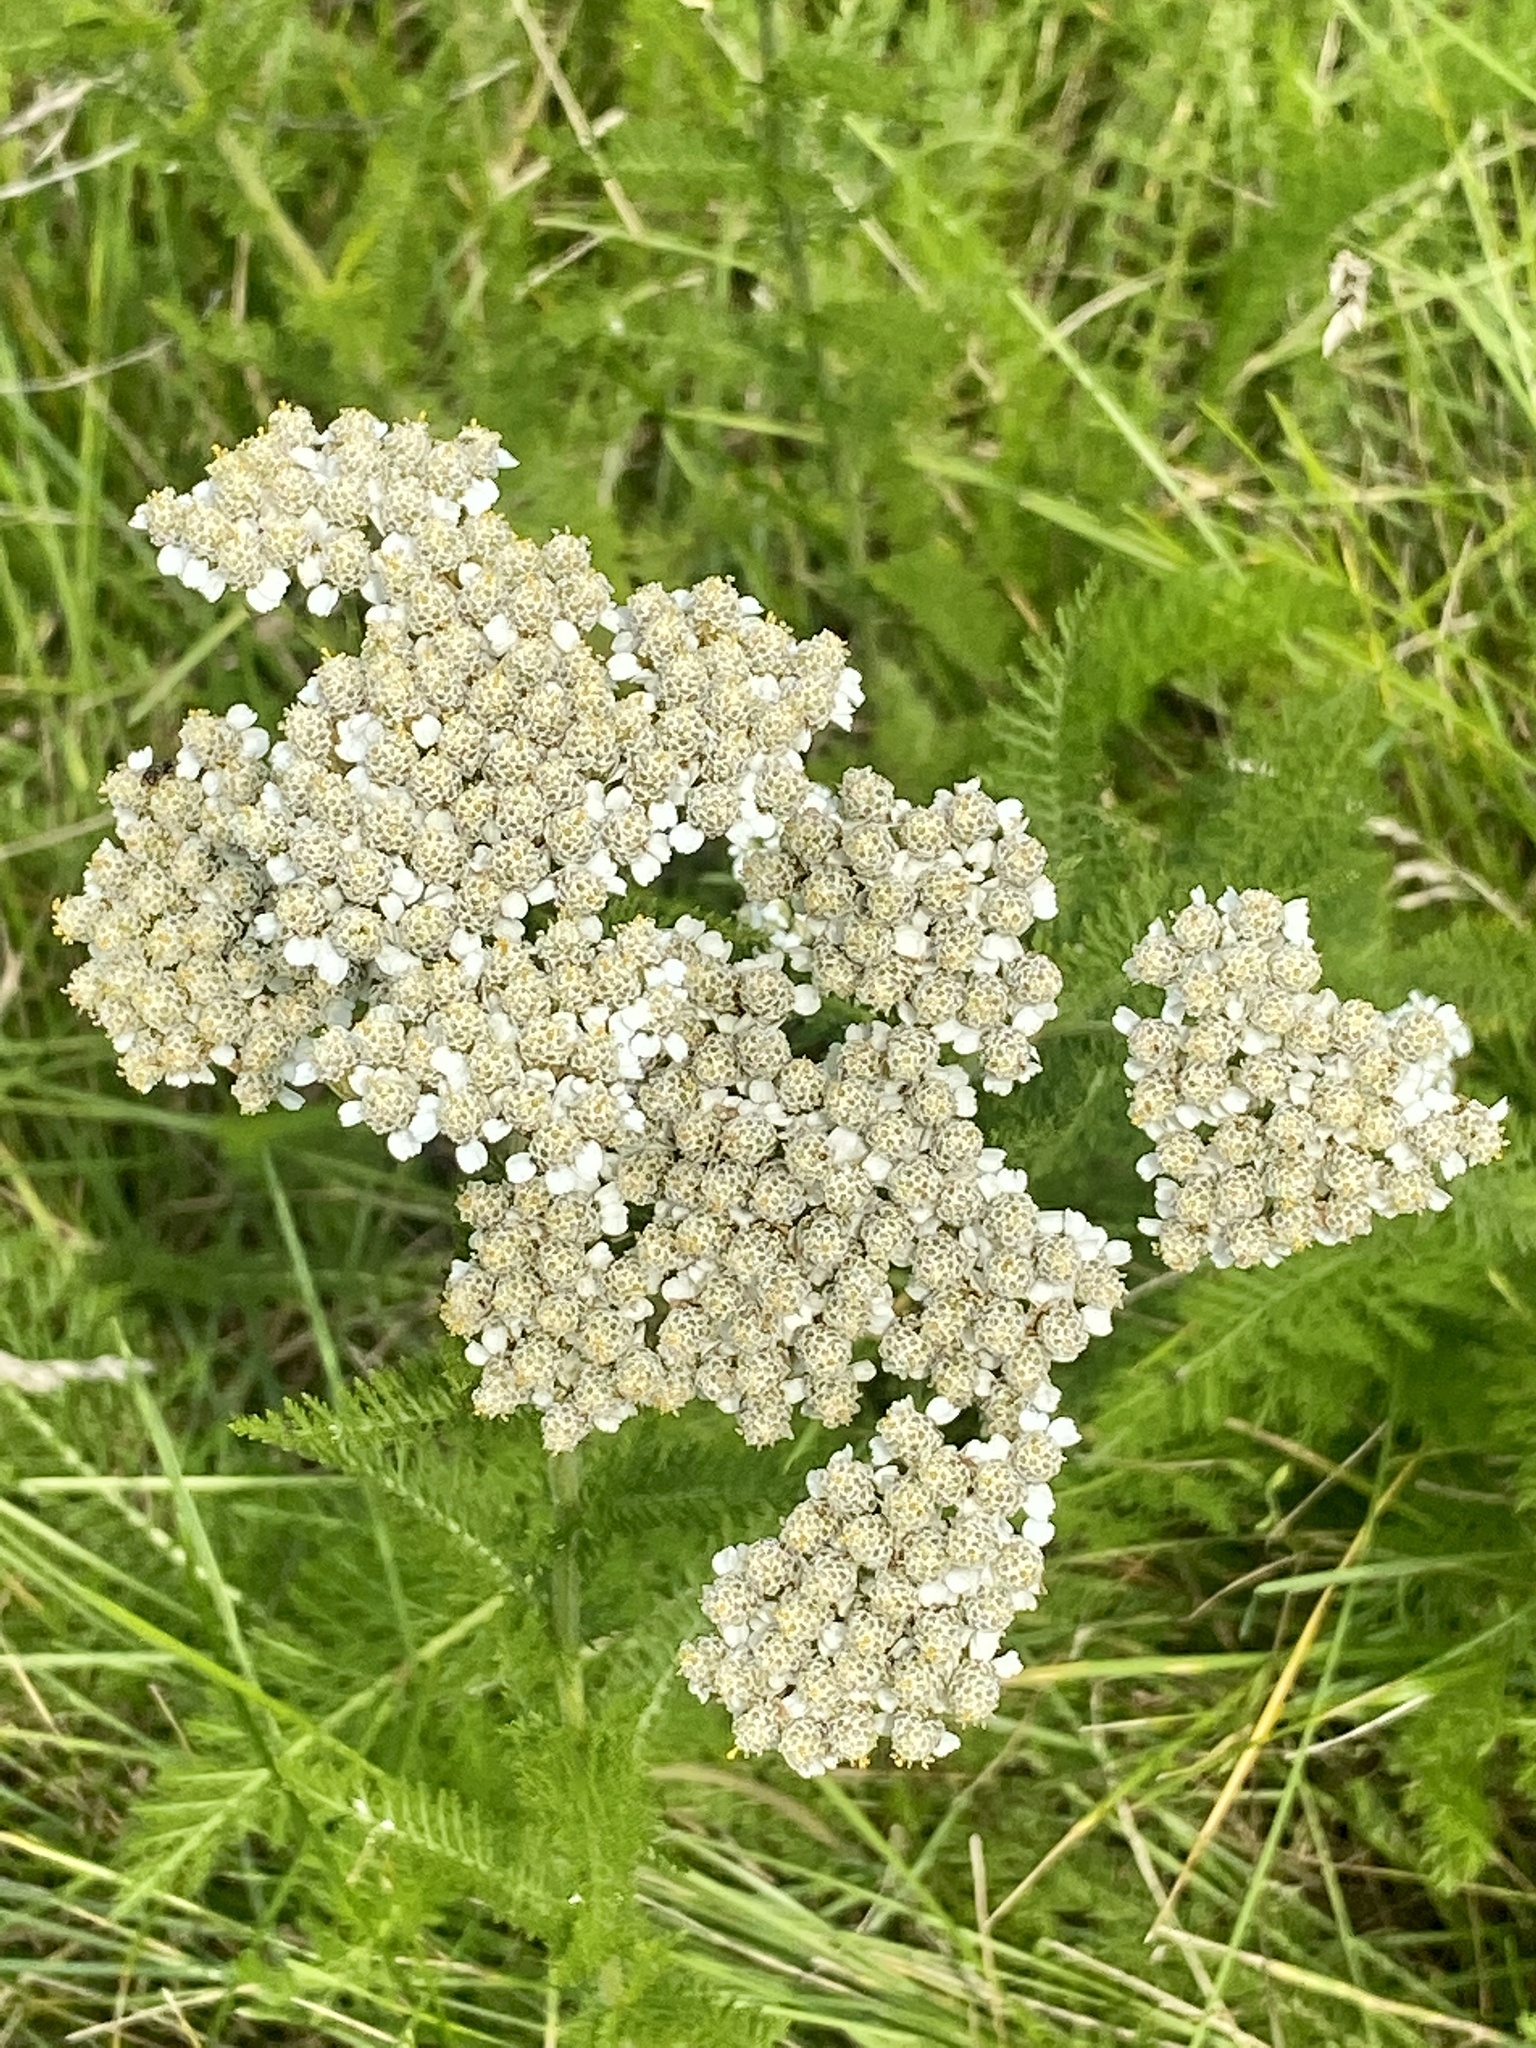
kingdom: Plantae
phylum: Tracheophyta
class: Magnoliopsida
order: Asterales
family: Asteraceae
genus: Achillea
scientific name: Achillea millefolium
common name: Yarrow
